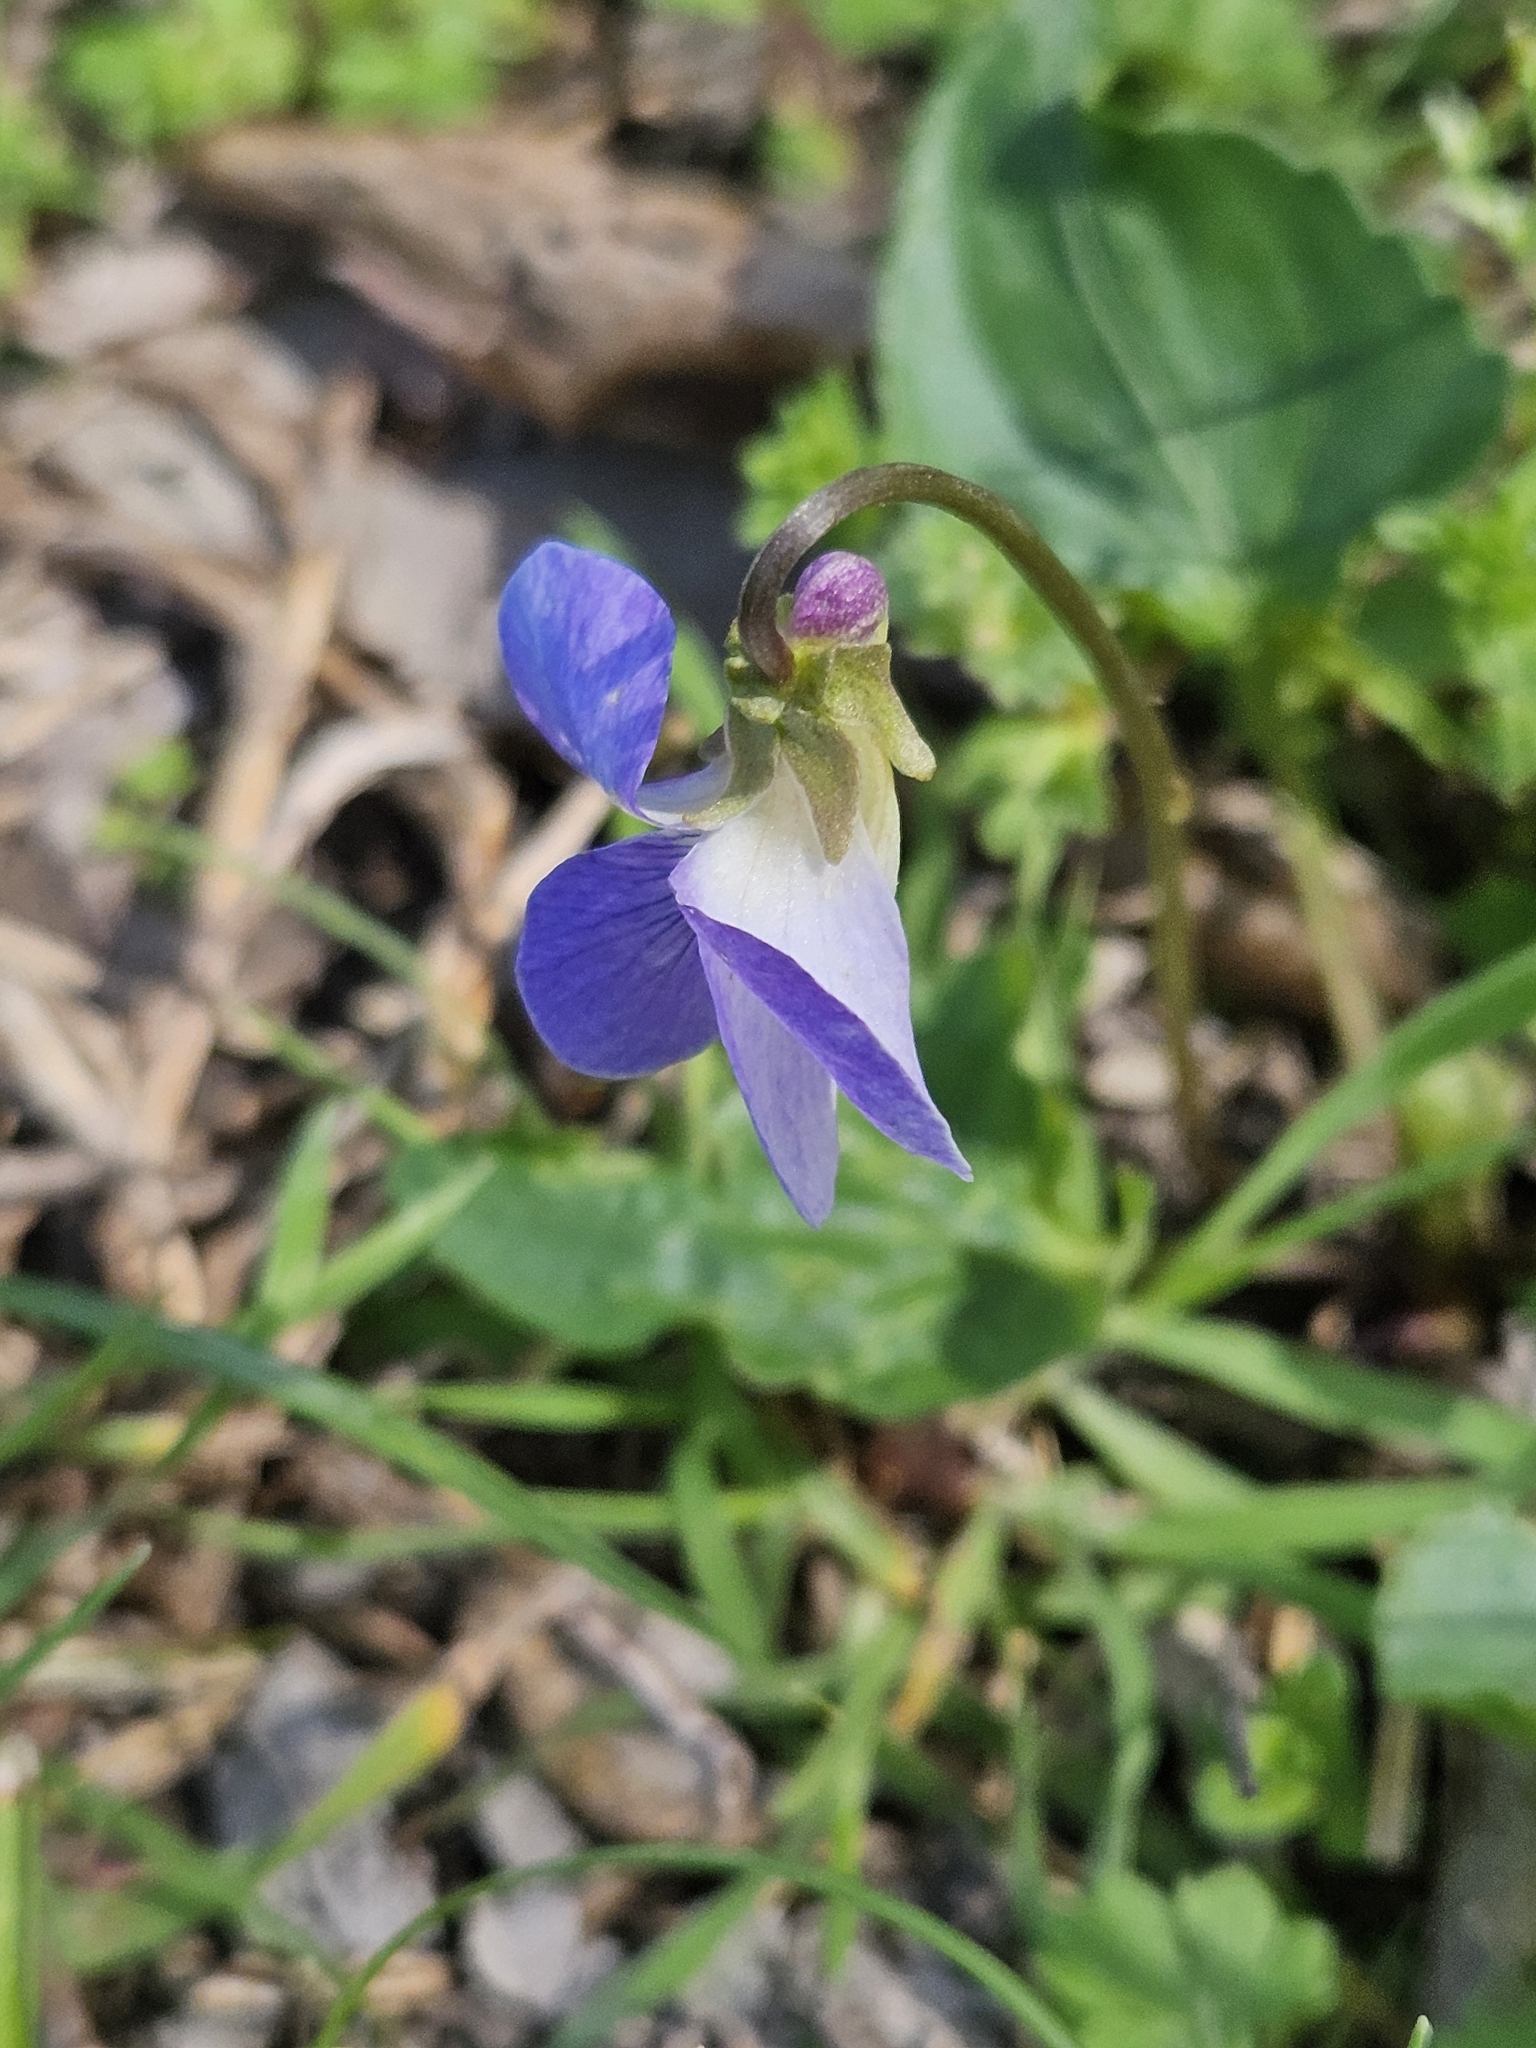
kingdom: Plantae
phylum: Tracheophyta
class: Magnoliopsida
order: Malpighiales
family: Violaceae
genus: Viola
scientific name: Viola missouriensis
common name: Missouri violet
